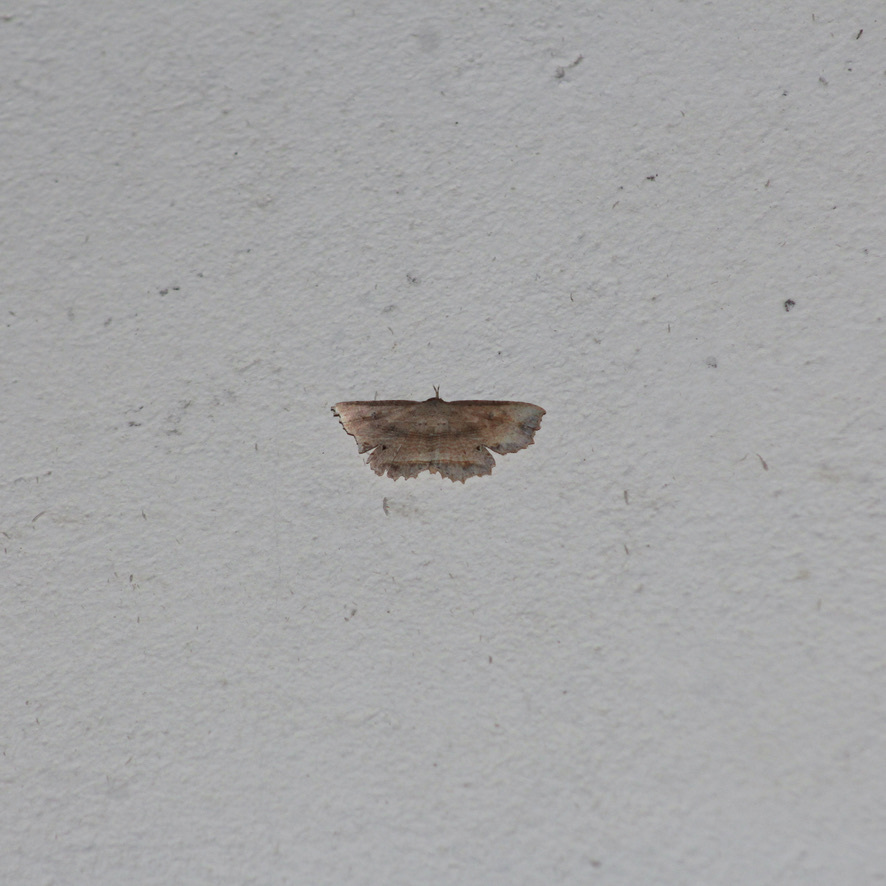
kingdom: Animalia
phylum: Arthropoda
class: Insecta
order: Lepidoptera
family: Erebidae
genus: Oroscopa
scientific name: Oroscopa abluta
